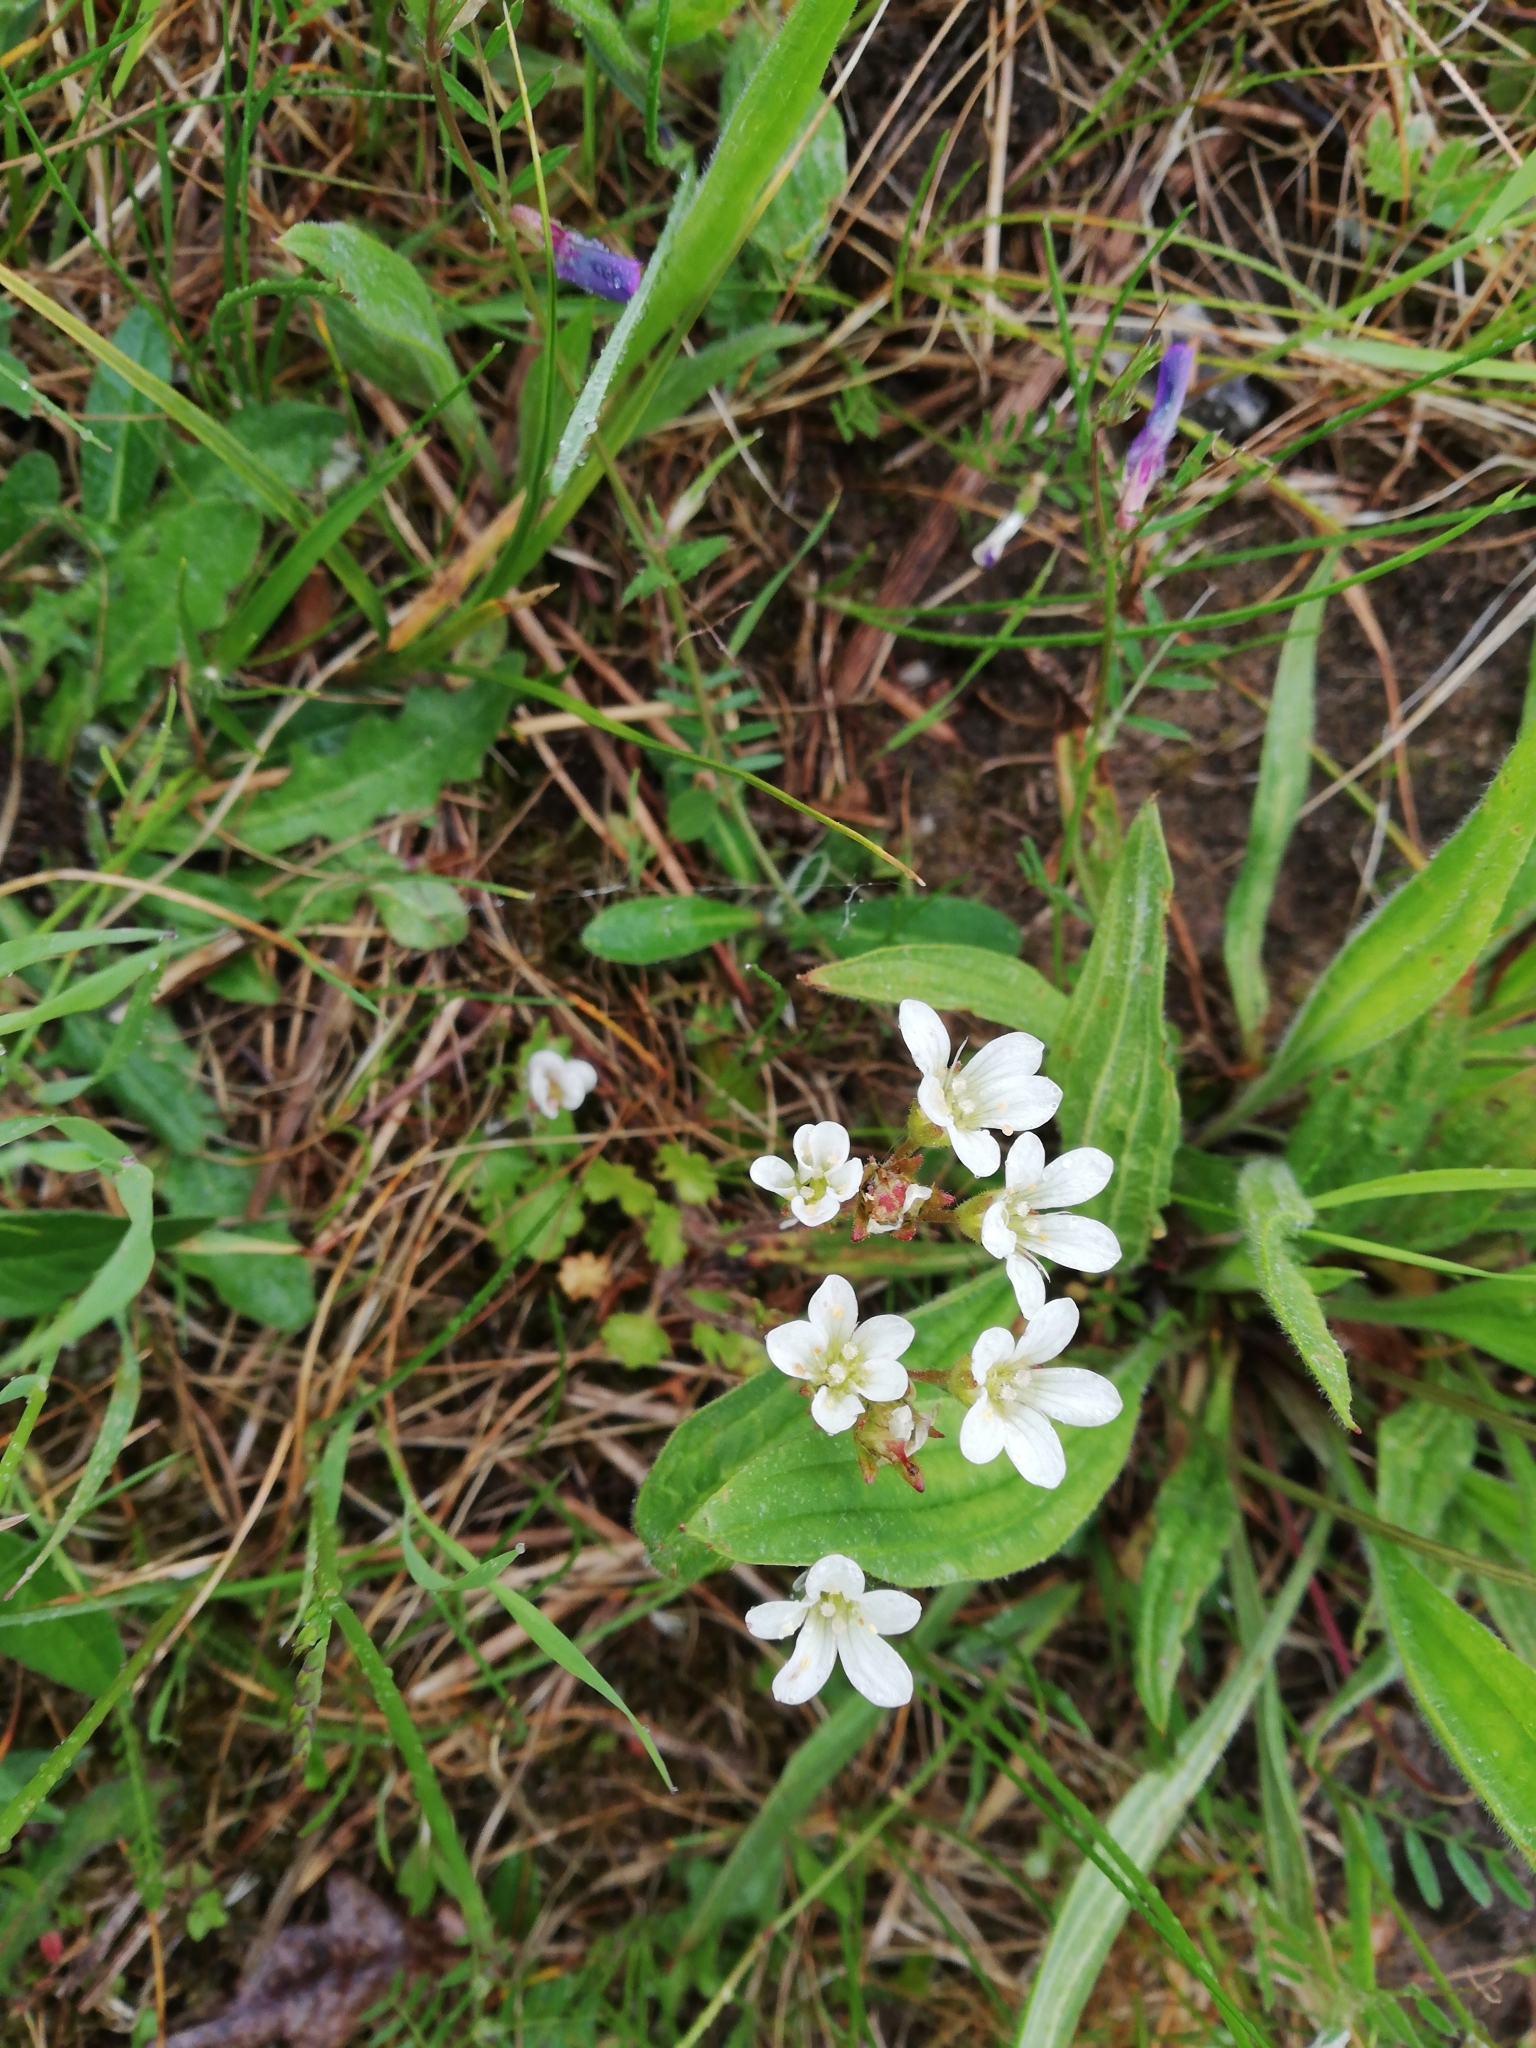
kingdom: Plantae
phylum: Tracheophyta
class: Magnoliopsida
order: Saxifragales
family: Saxifragaceae
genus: Saxifraga
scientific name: Saxifraga granulata
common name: Meadow saxifrage
